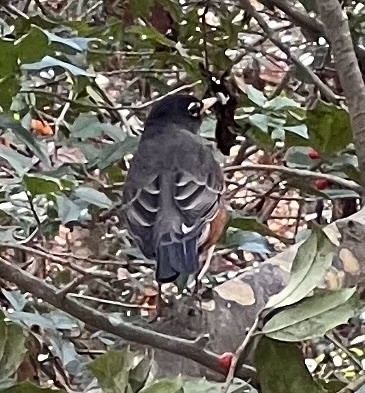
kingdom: Animalia
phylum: Chordata
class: Aves
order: Passeriformes
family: Turdidae
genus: Turdus
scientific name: Turdus migratorius
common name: American robin
